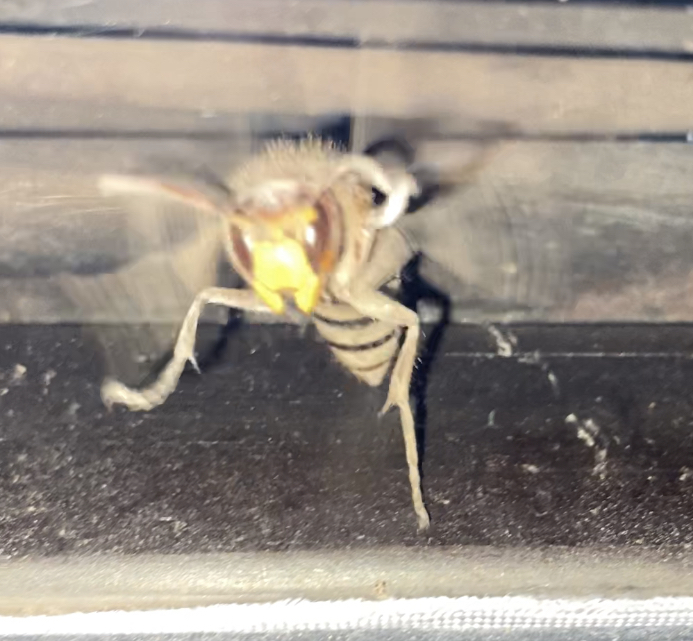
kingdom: Animalia
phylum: Arthropoda
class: Insecta
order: Hymenoptera
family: Vespidae
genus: Vespa
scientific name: Vespa crabro
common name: Hornet
